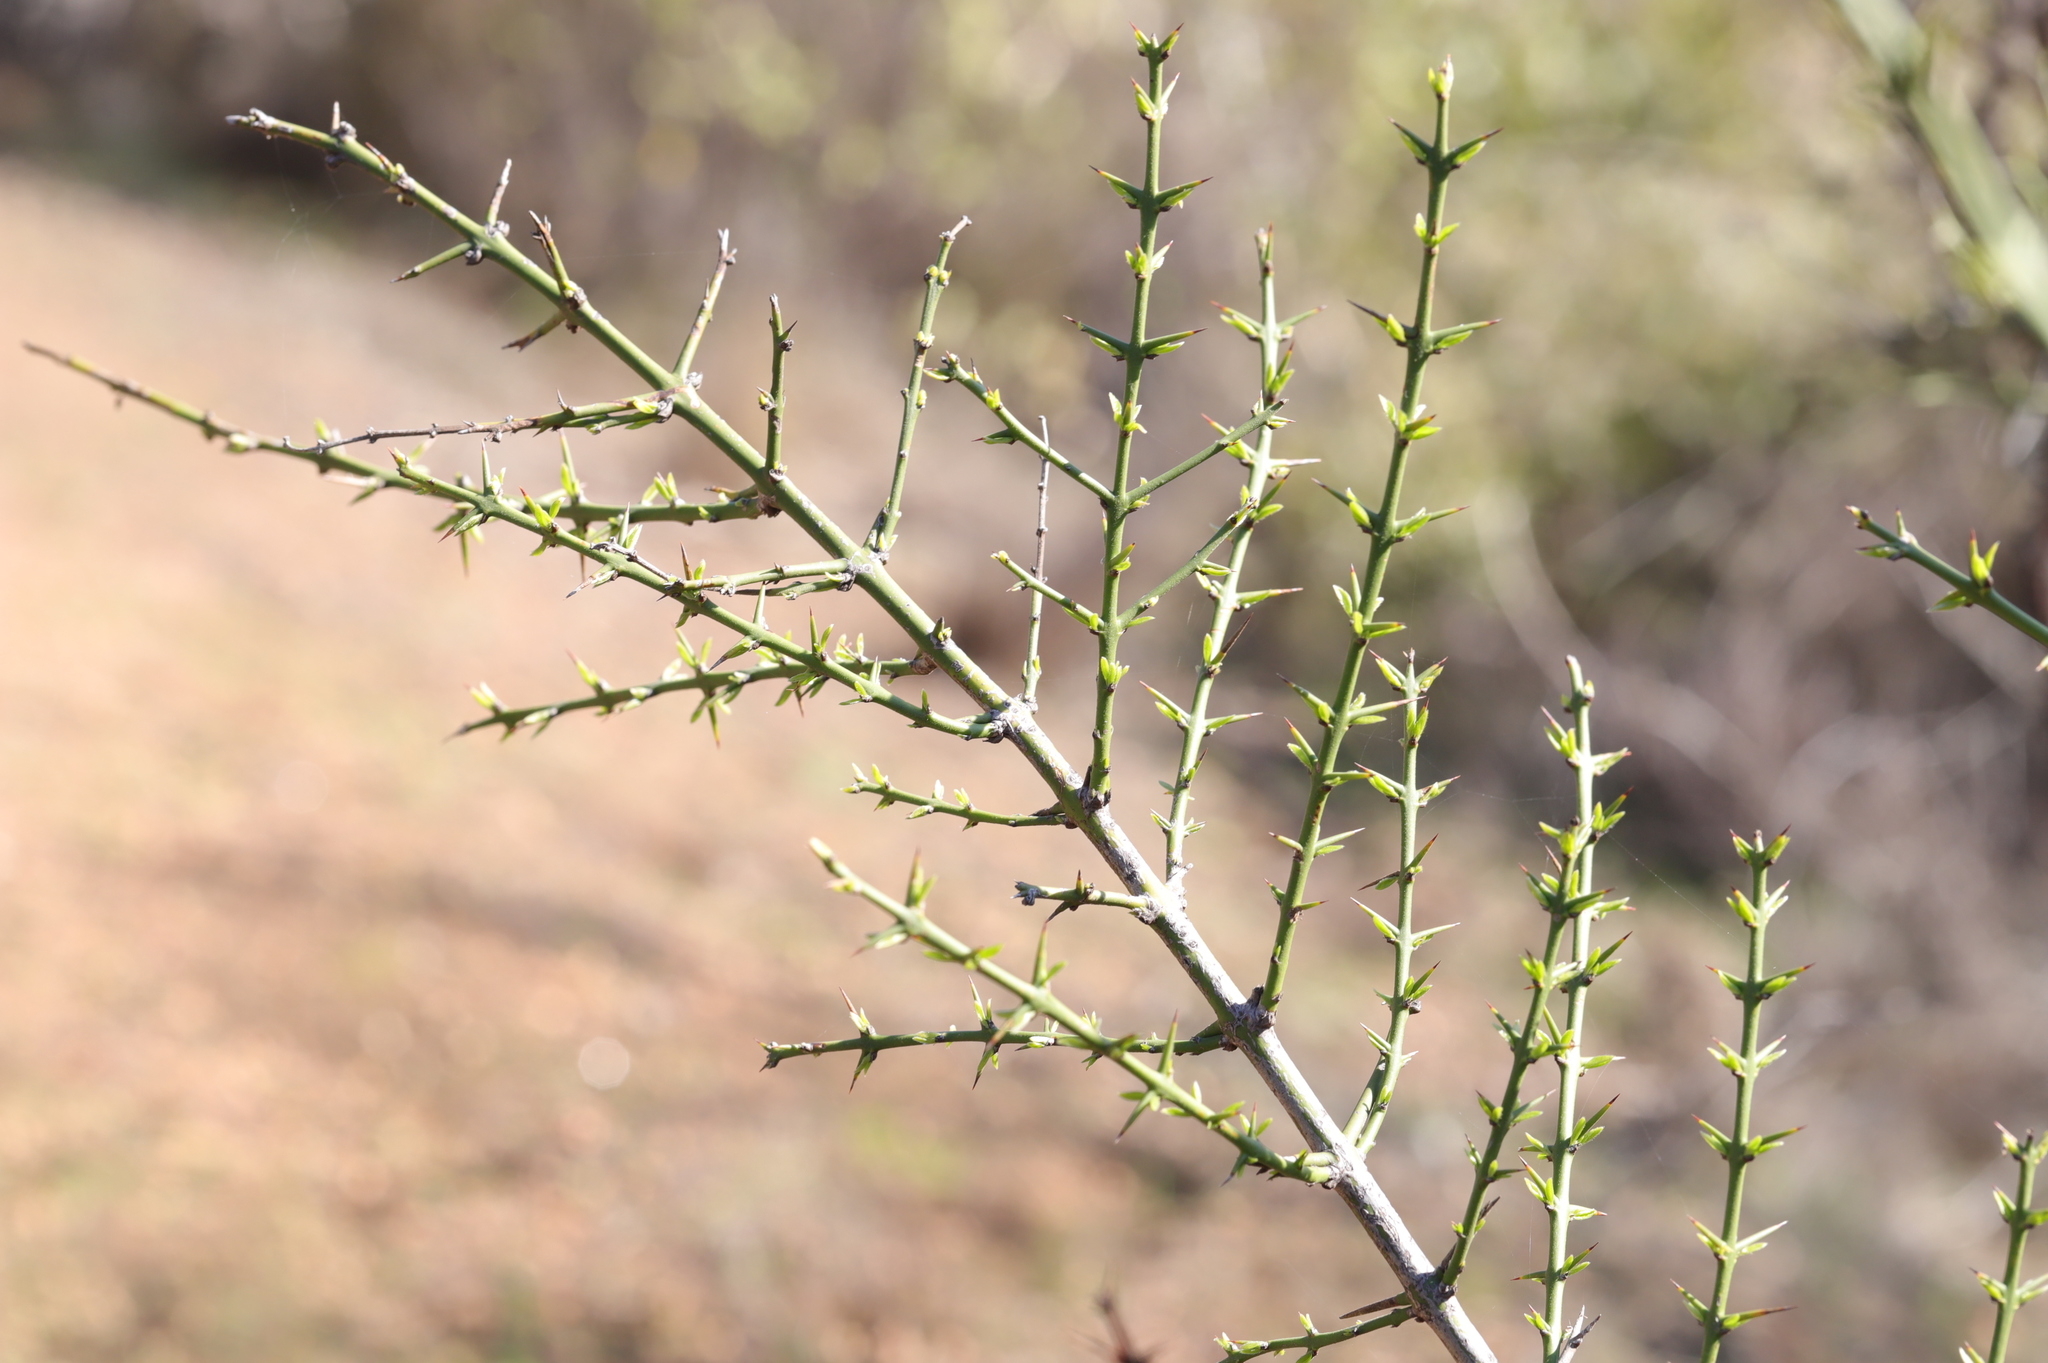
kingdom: Plantae
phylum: Tracheophyta
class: Magnoliopsida
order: Rosales
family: Rhamnaceae
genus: Retanilla
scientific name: Retanilla trinervia
